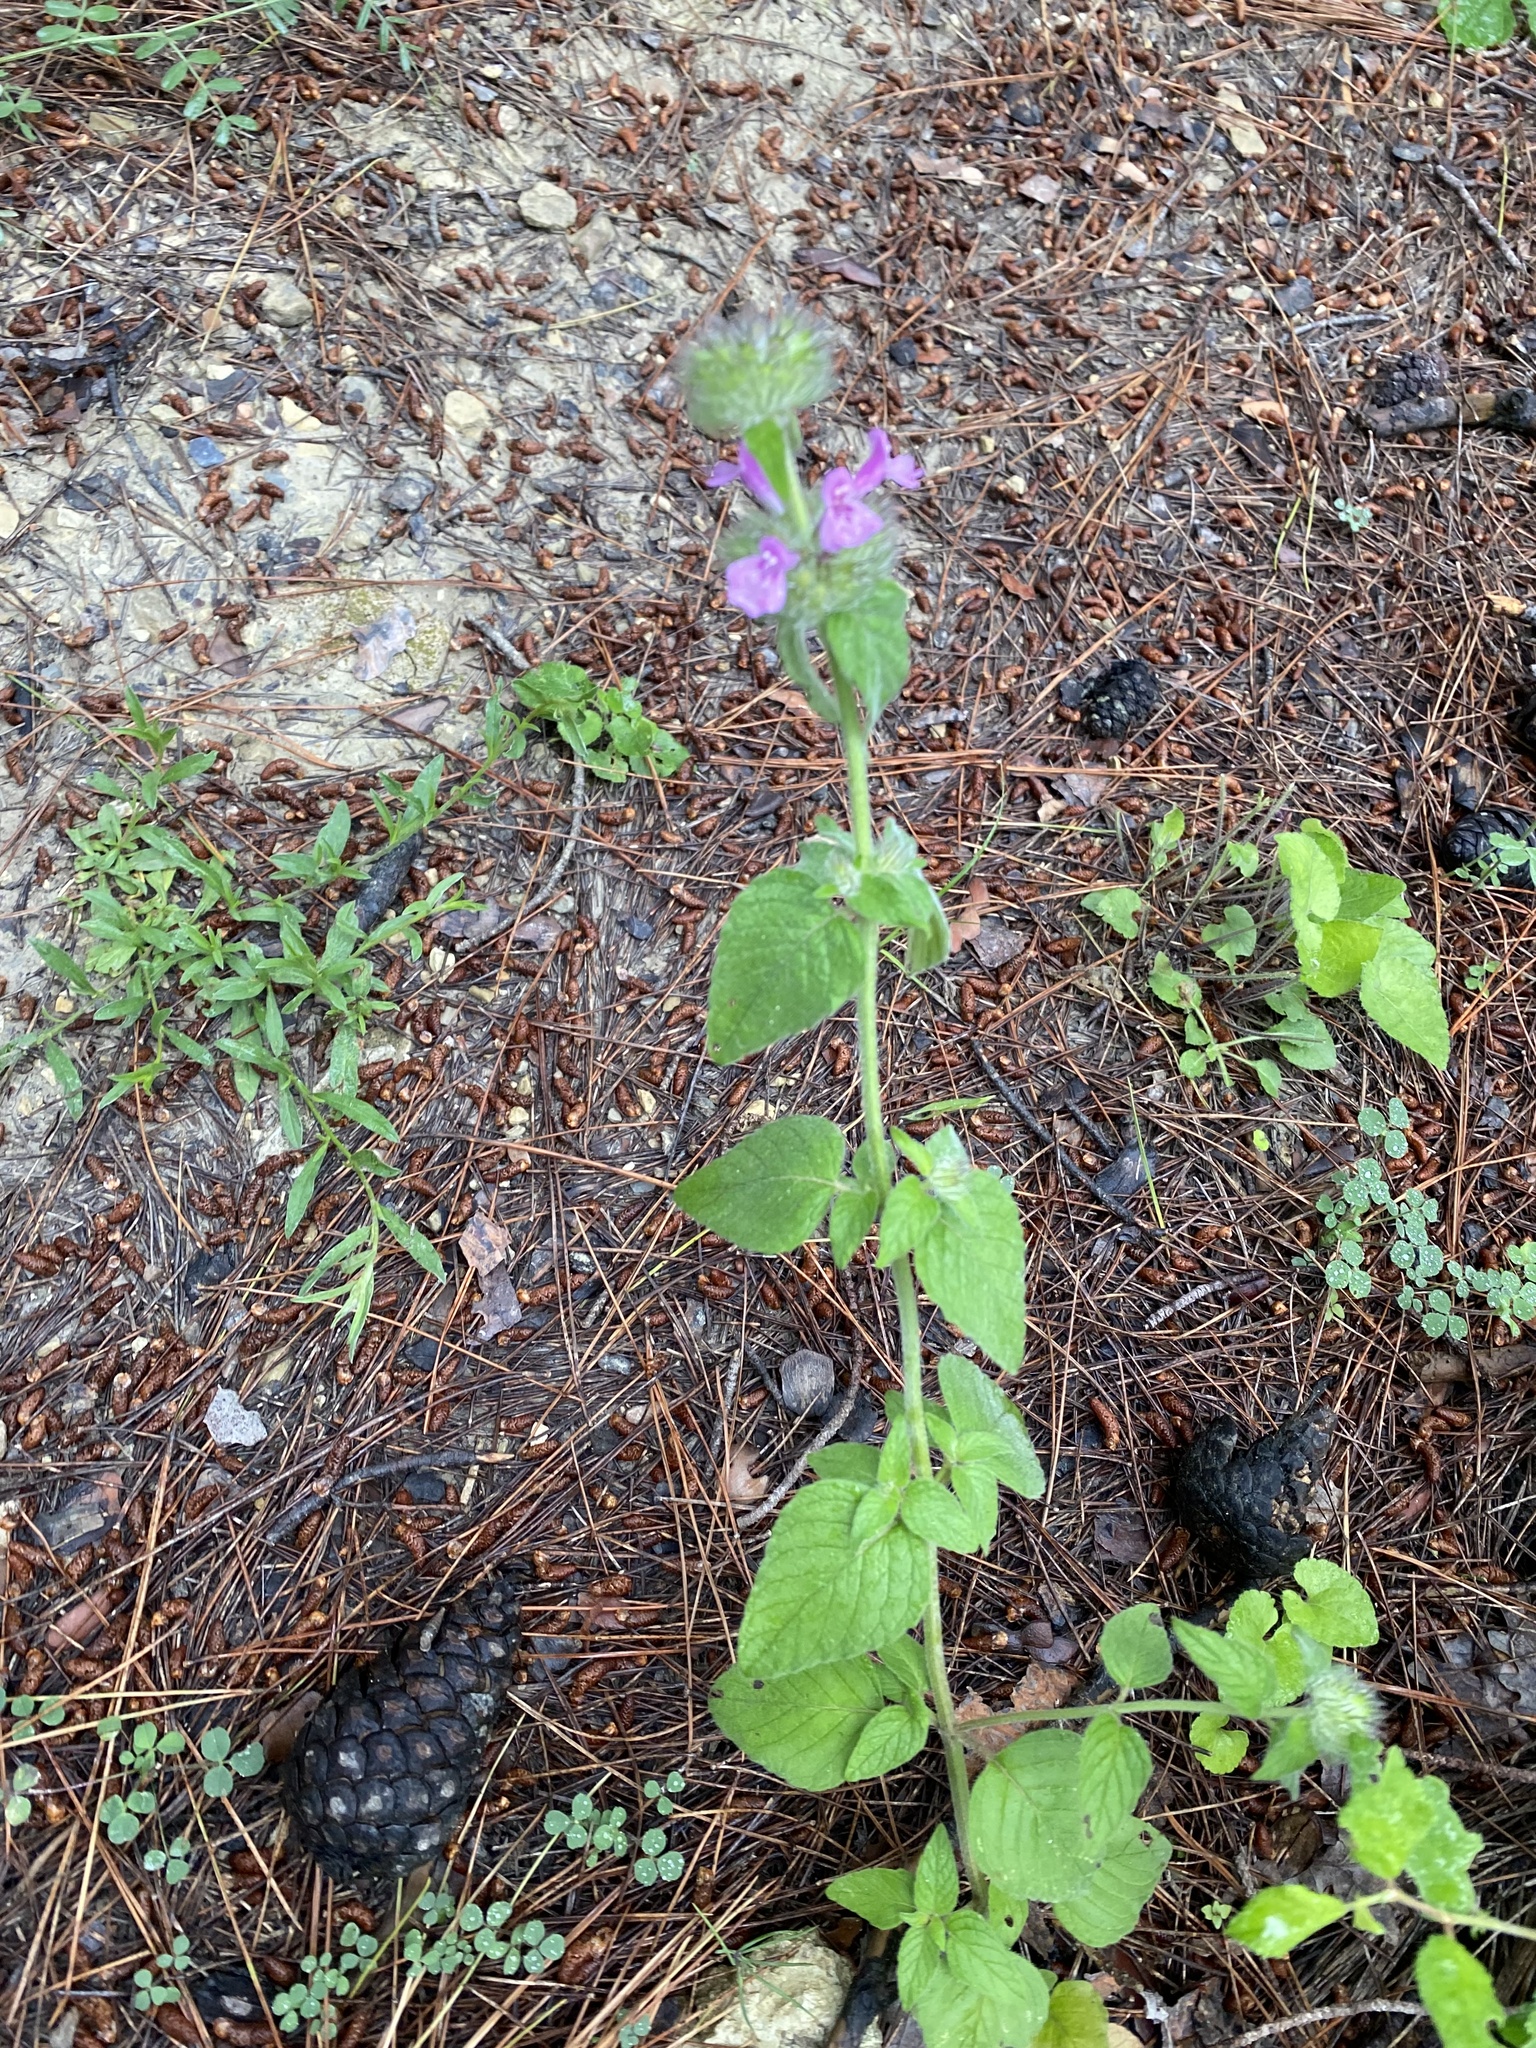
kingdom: Plantae
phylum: Tracheophyta
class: Magnoliopsida
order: Lamiales
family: Lamiaceae
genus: Clinopodium
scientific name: Clinopodium vulgare
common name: Wild basil
